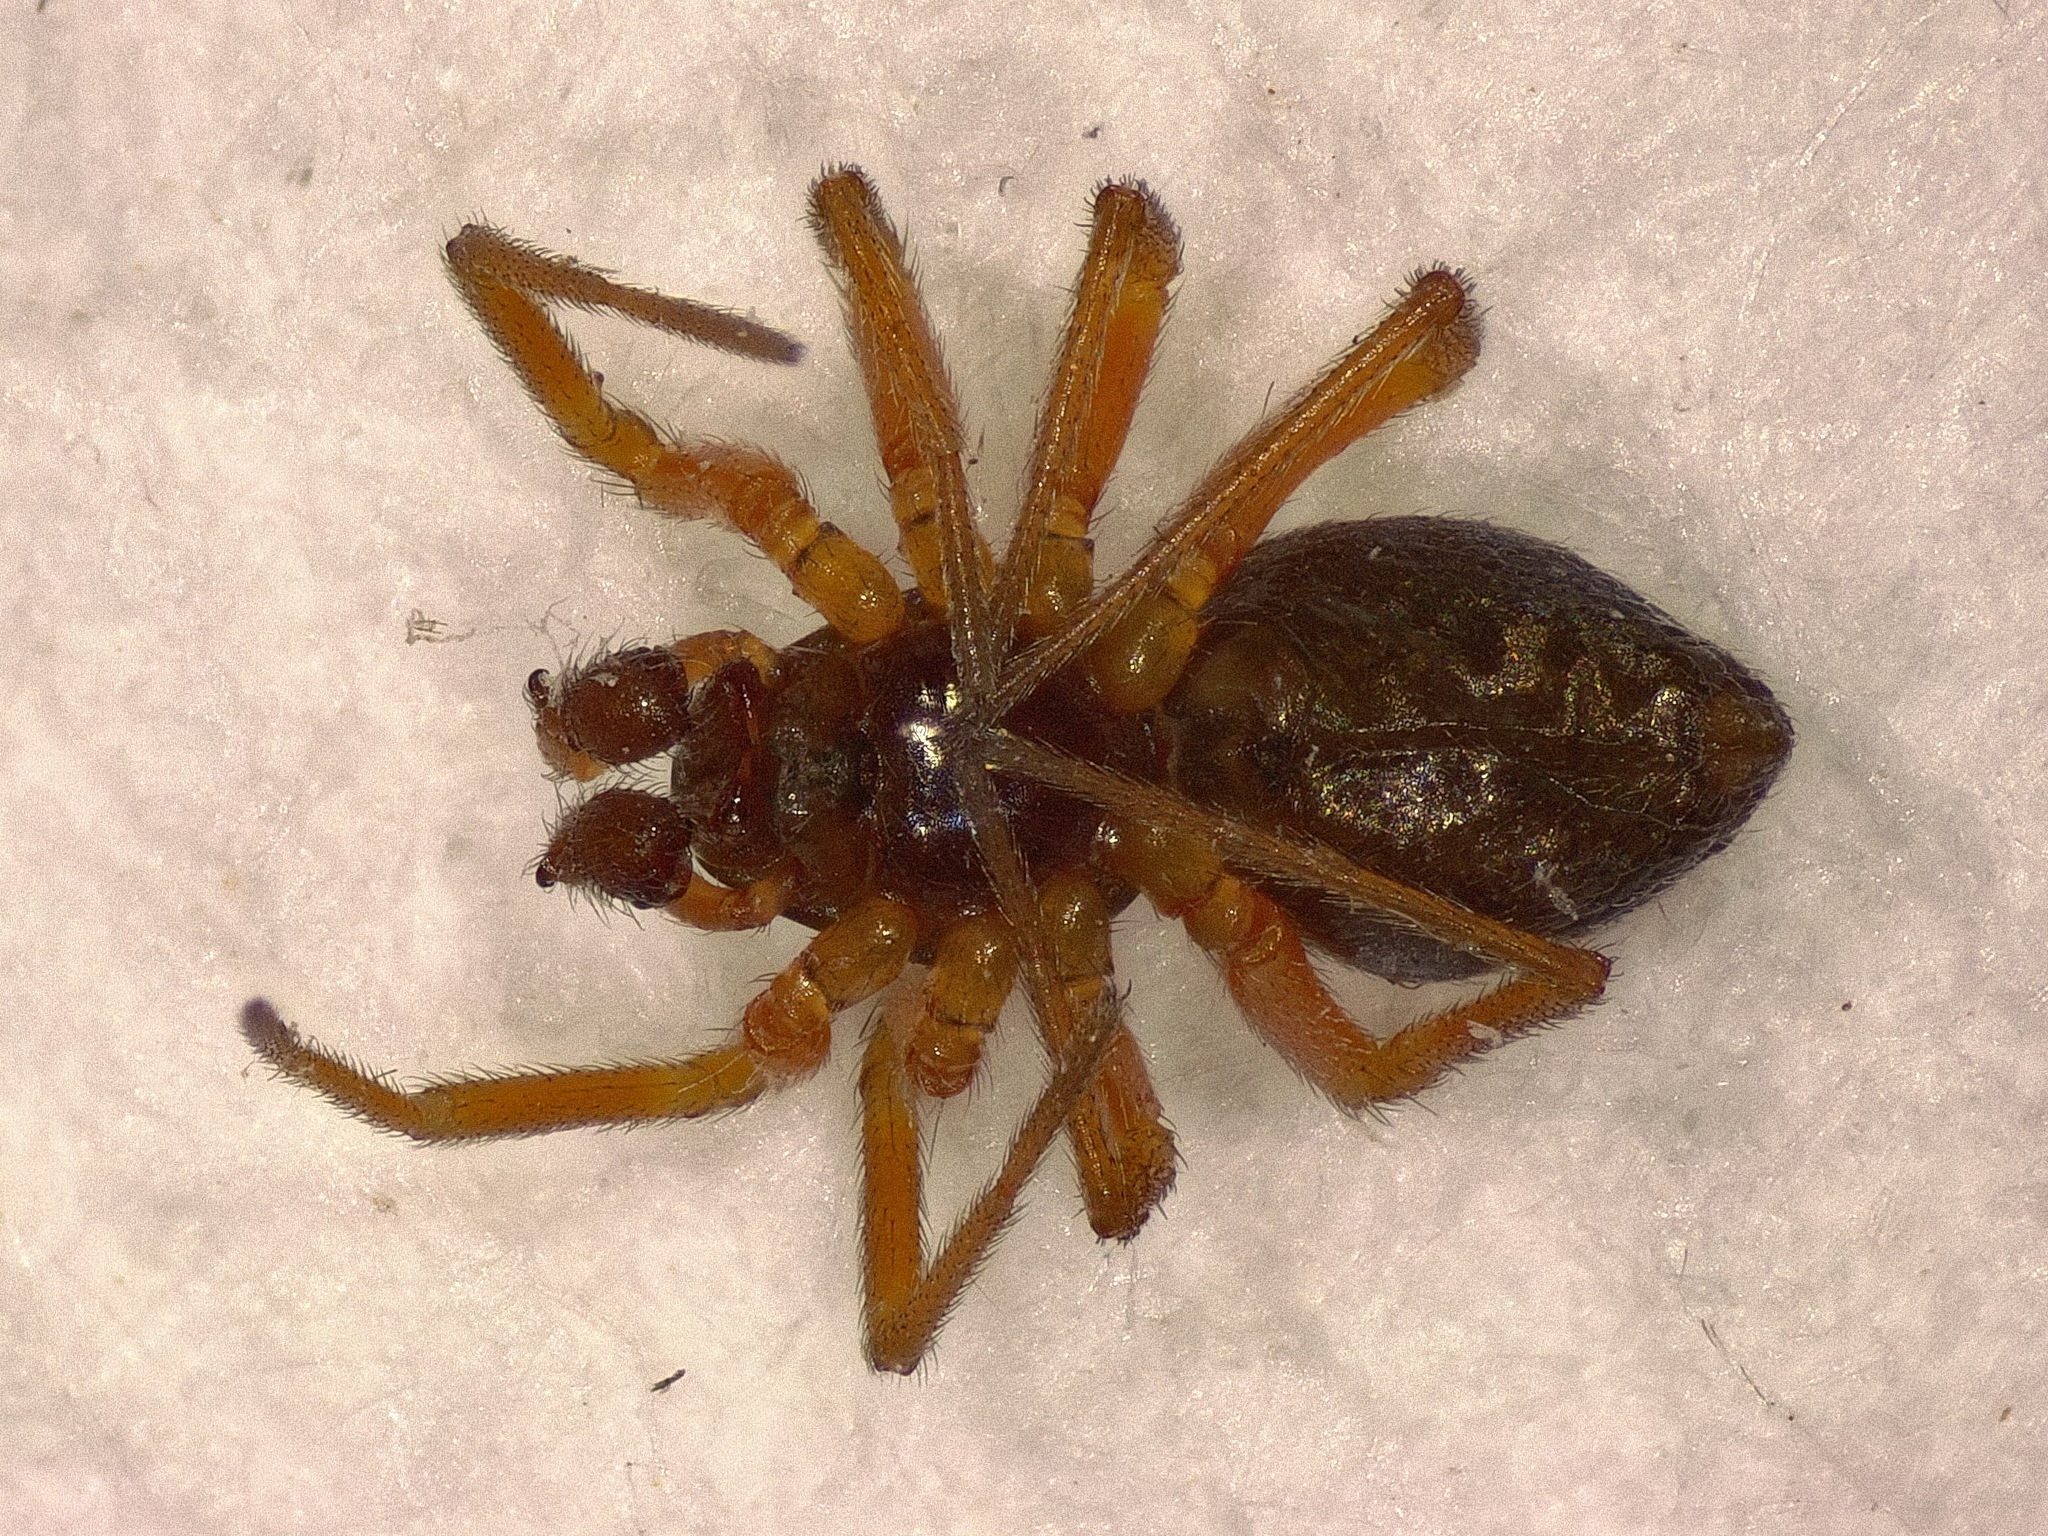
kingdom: Animalia
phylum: Arthropoda
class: Arachnida
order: Araneae
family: Linyphiidae
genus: Oedothorax
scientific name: Oedothorax apicatus
